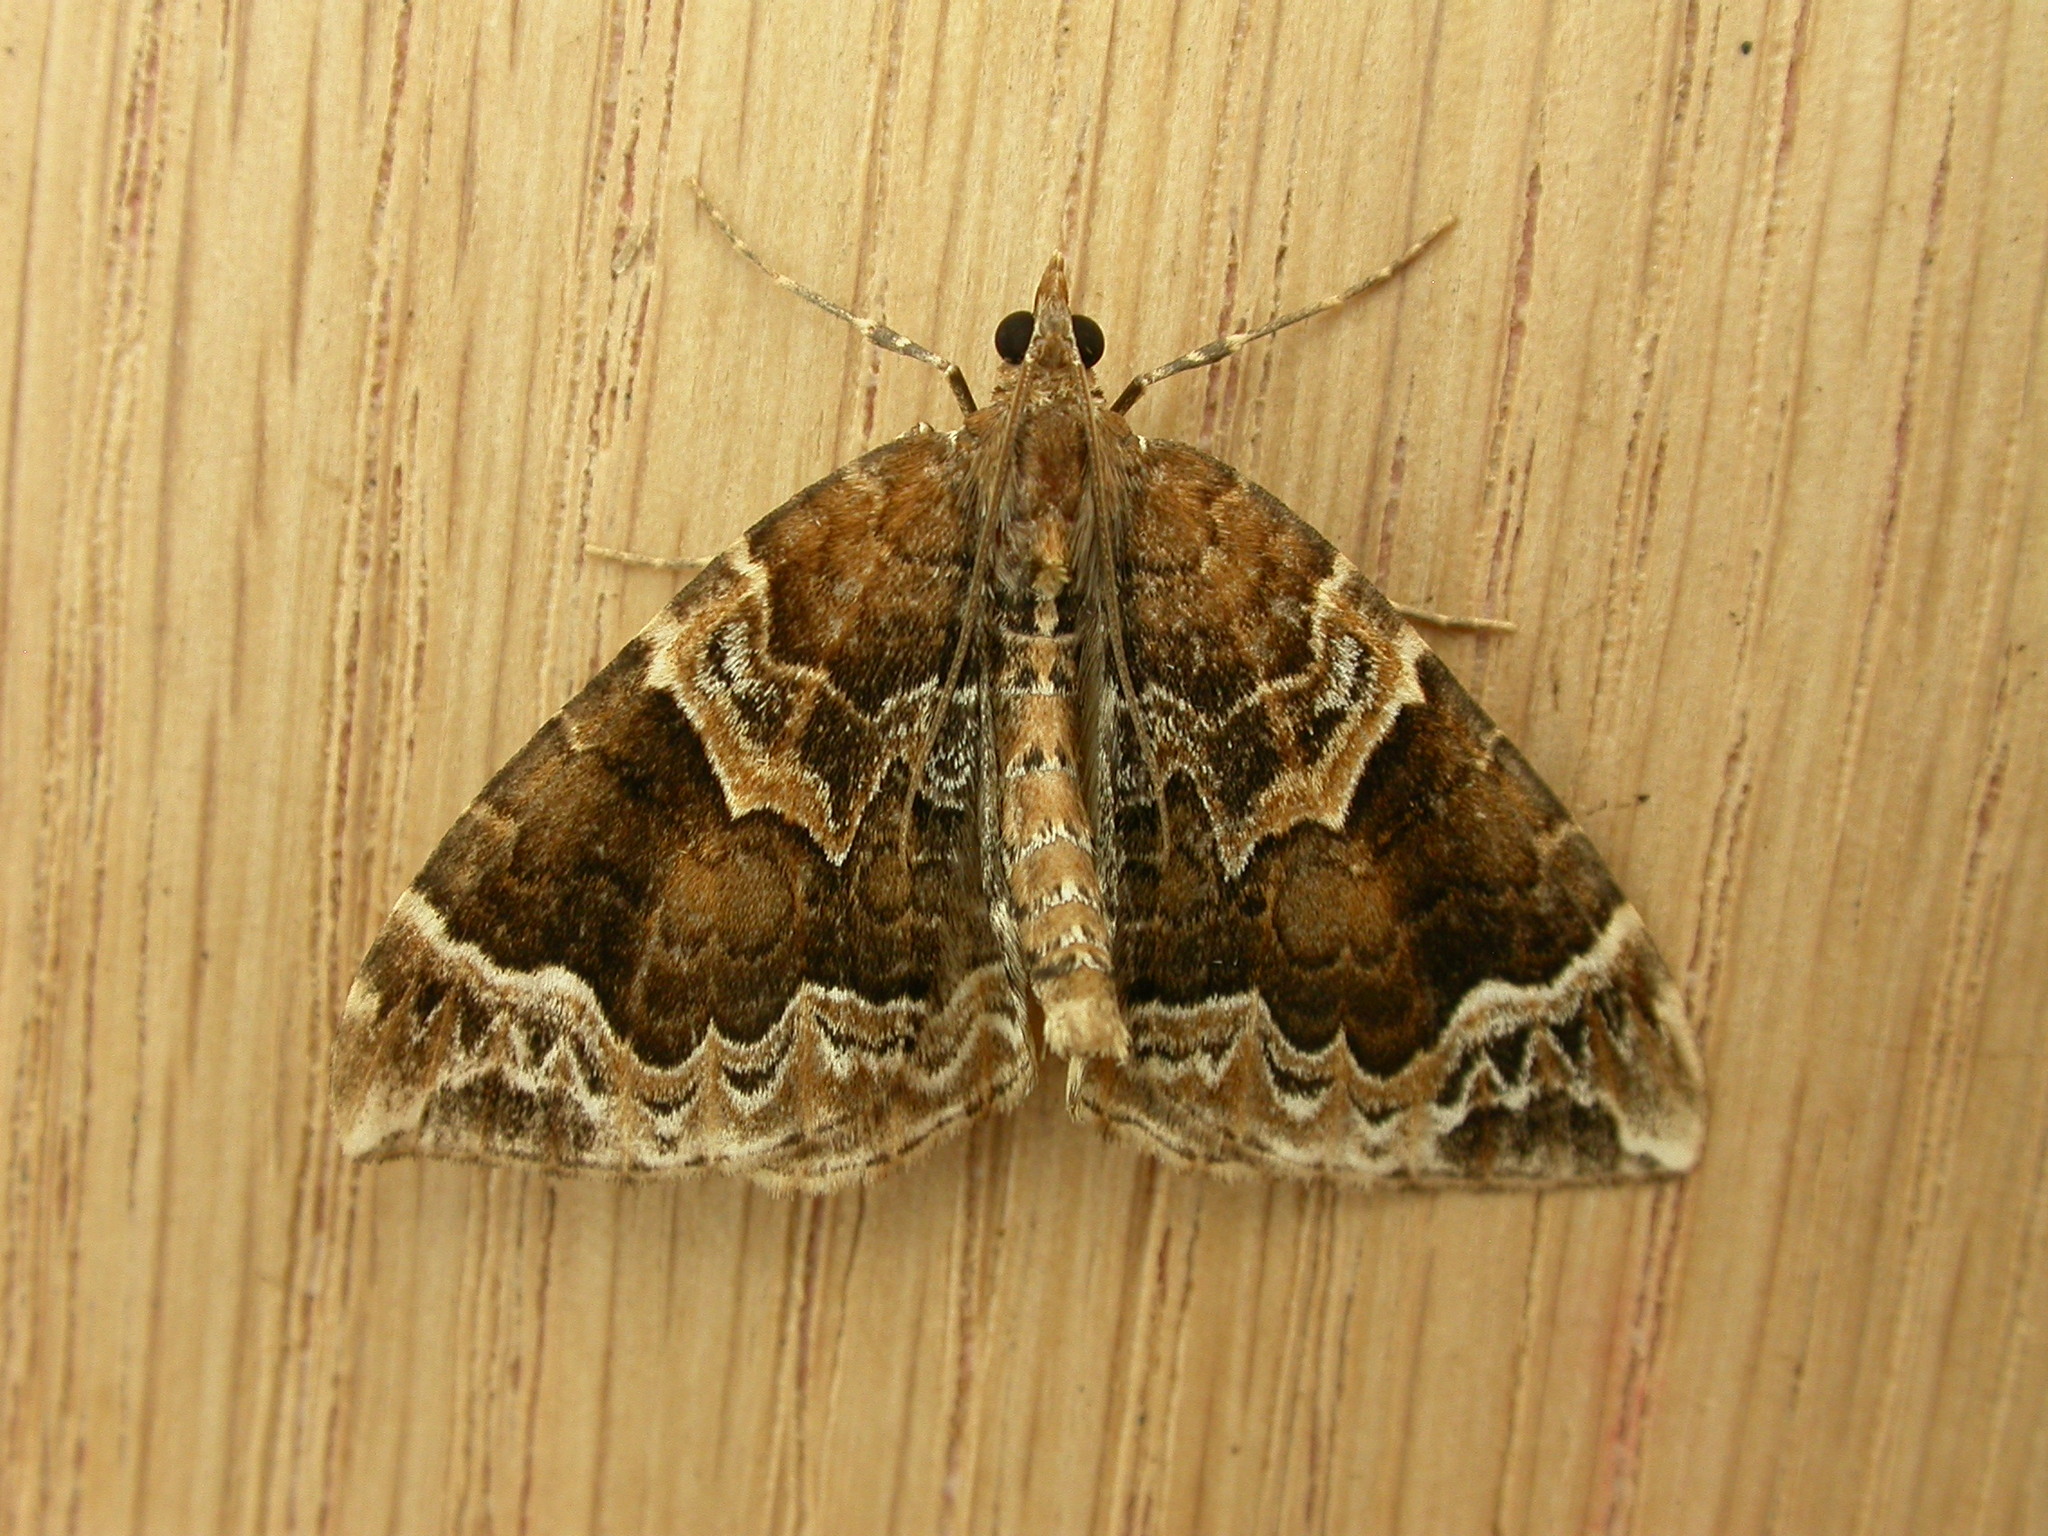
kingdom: Animalia
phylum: Arthropoda
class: Insecta
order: Lepidoptera
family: Geometridae
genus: Eulithis
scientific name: Eulithis prunata
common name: Phoenix
